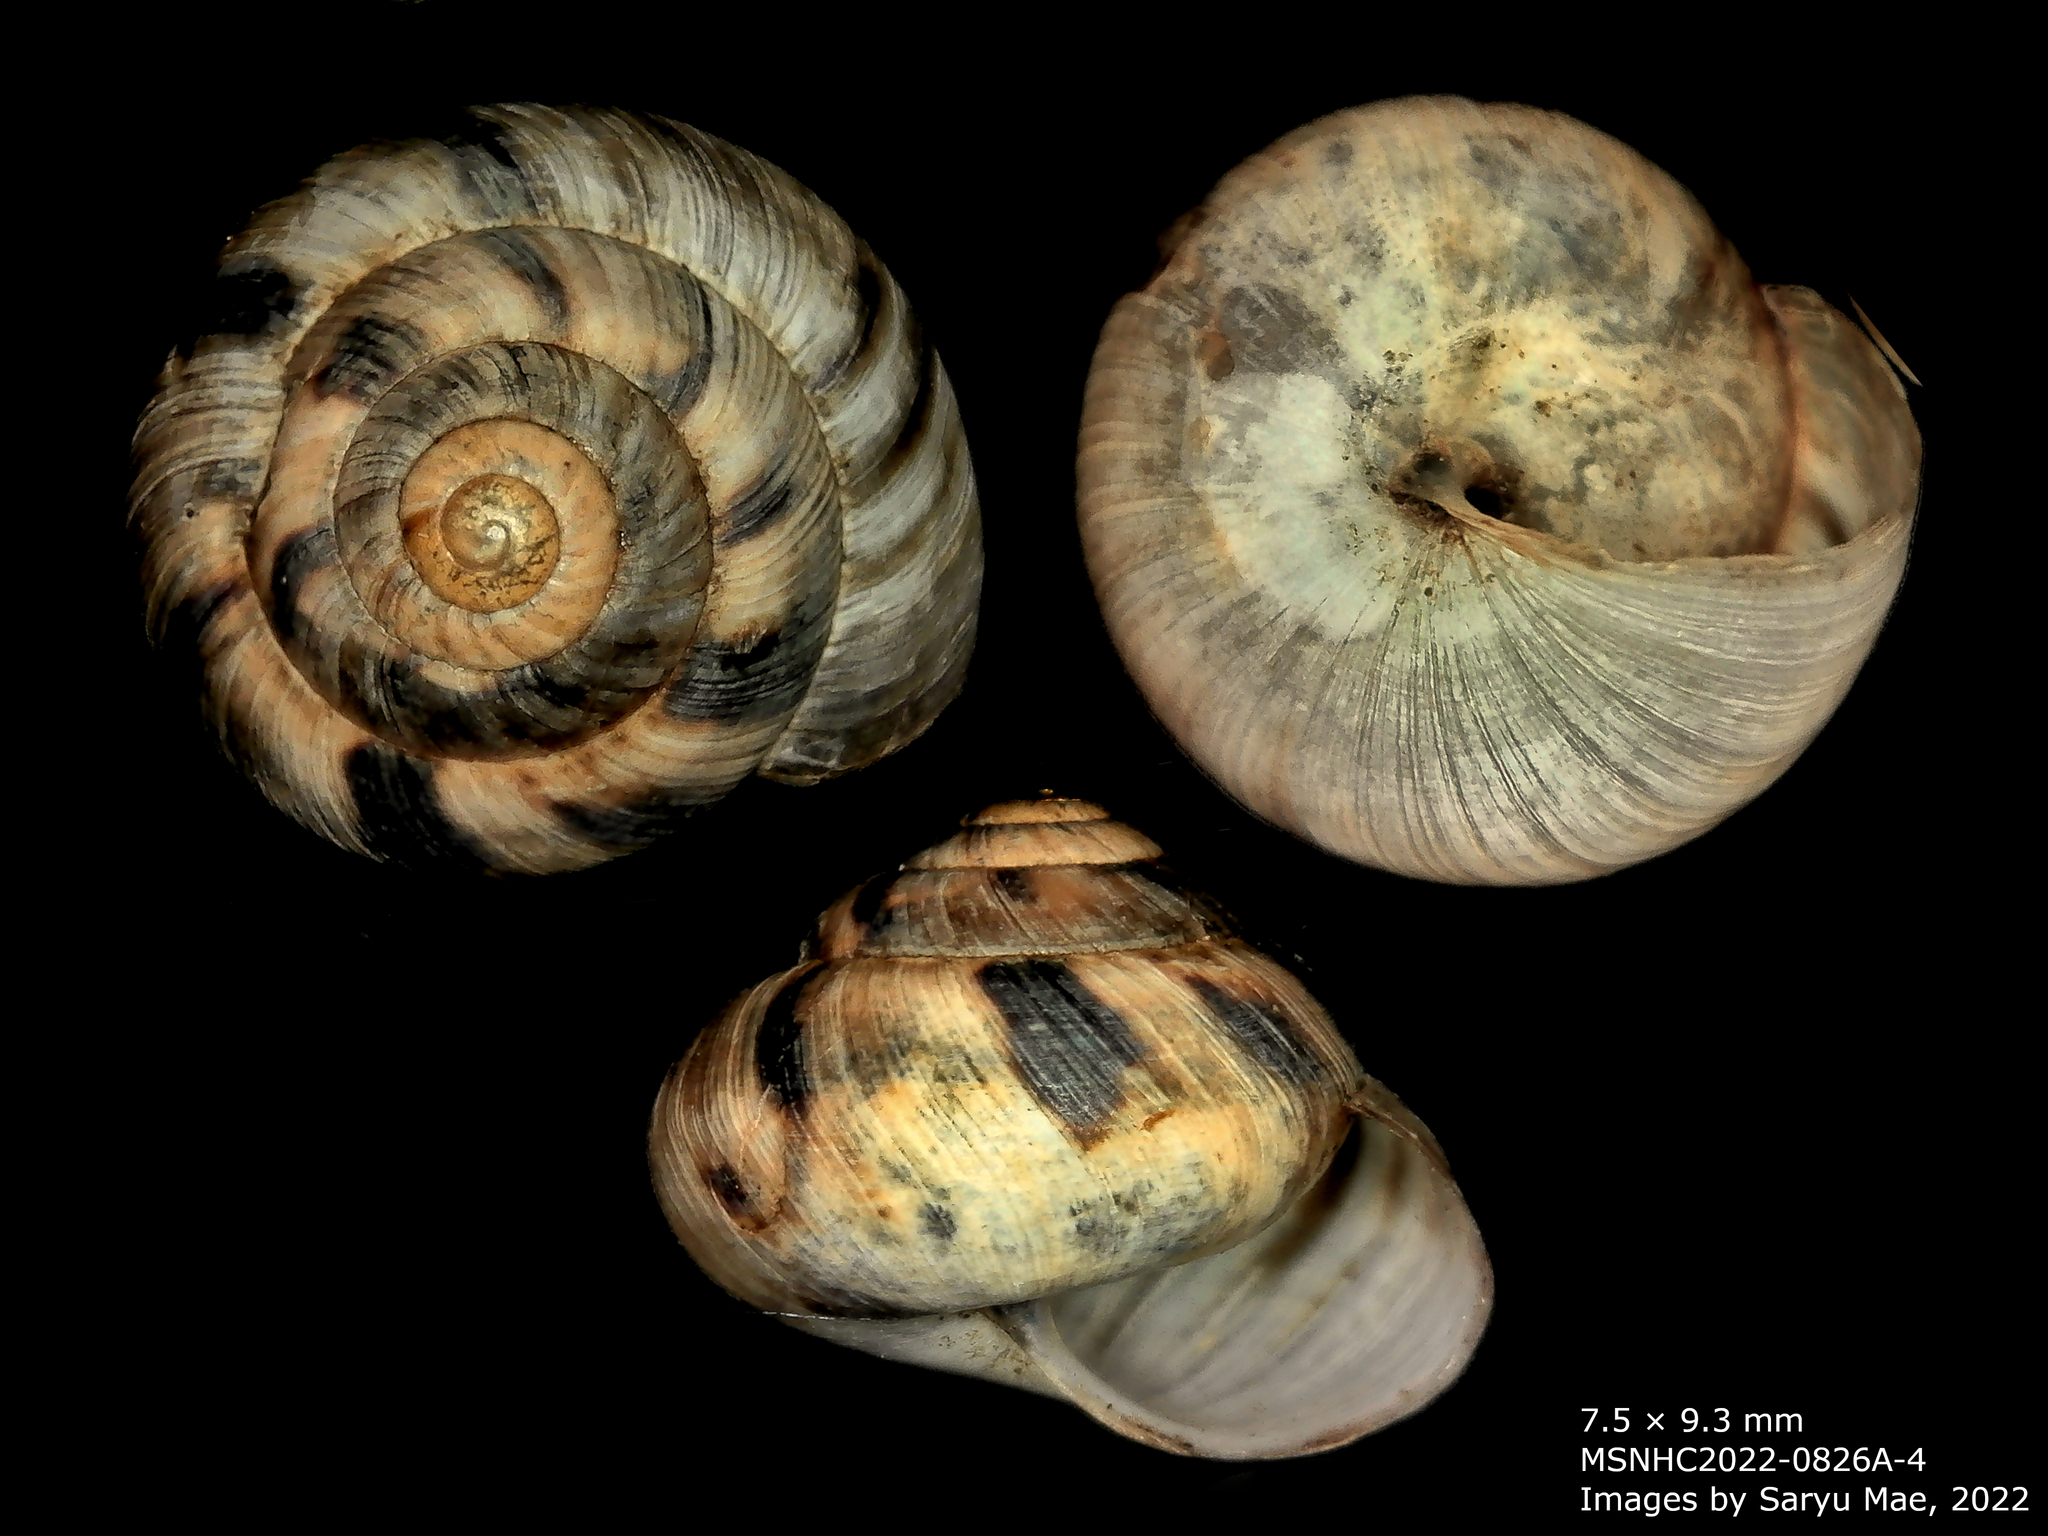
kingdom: Animalia
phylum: Mollusca
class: Gastropoda
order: Stylommatophora
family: Charopidae
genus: Serpho
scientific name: Serpho
